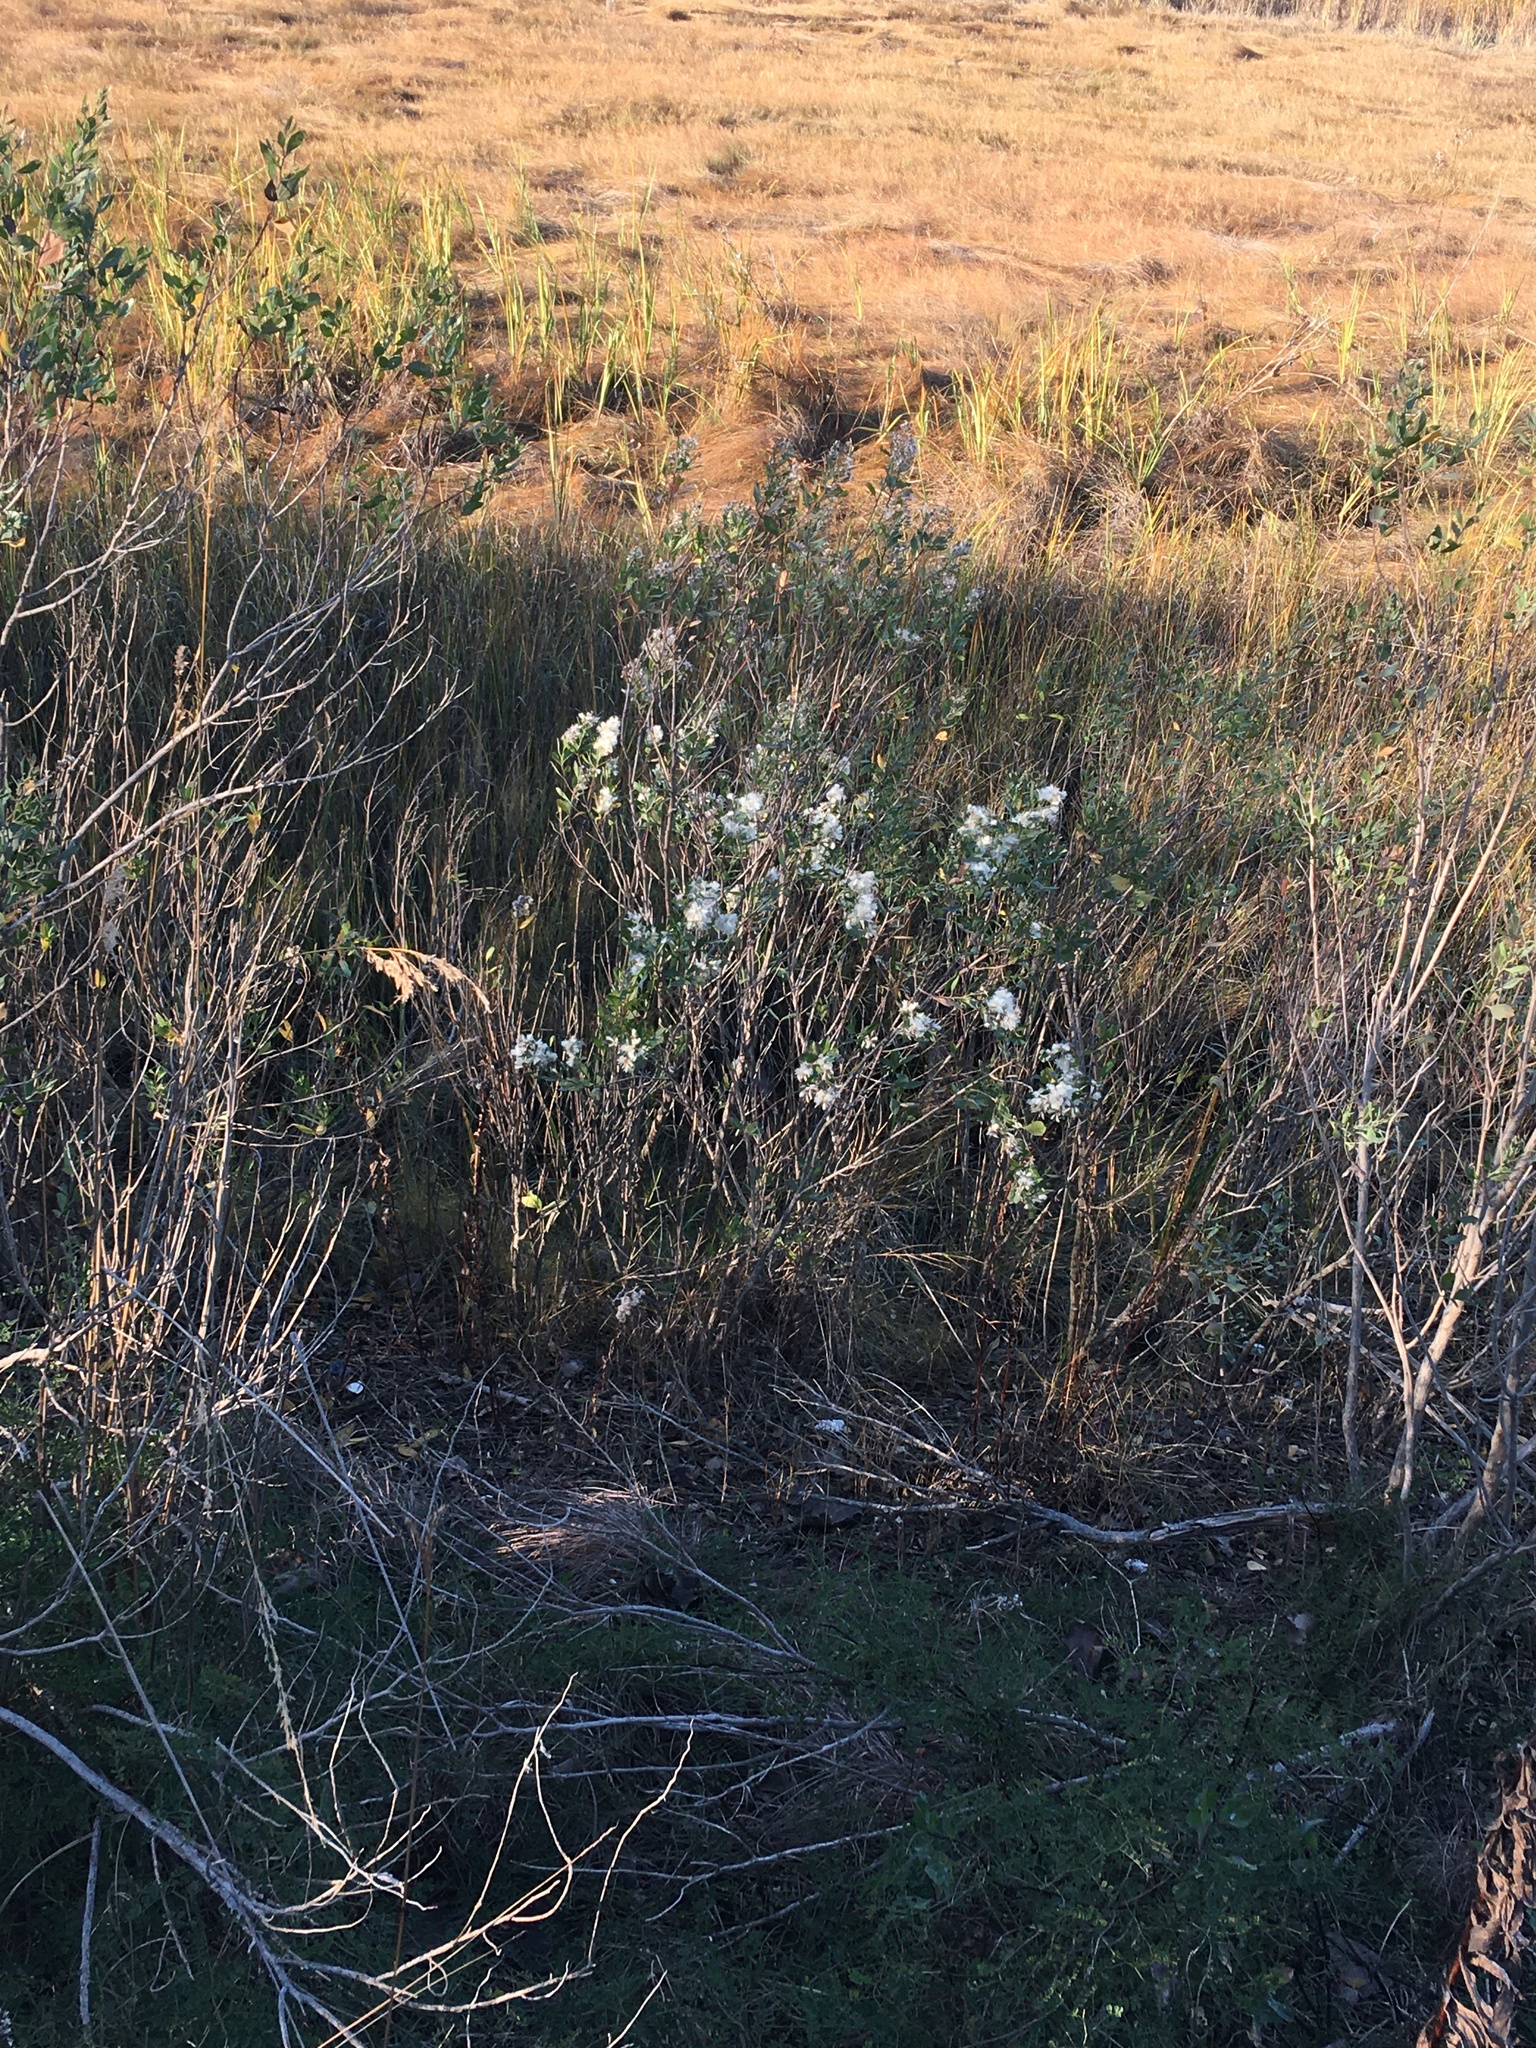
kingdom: Plantae
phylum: Tracheophyta
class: Magnoliopsida
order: Asterales
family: Asteraceae
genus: Baccharis
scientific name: Baccharis halimifolia
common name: Eastern baccharis
